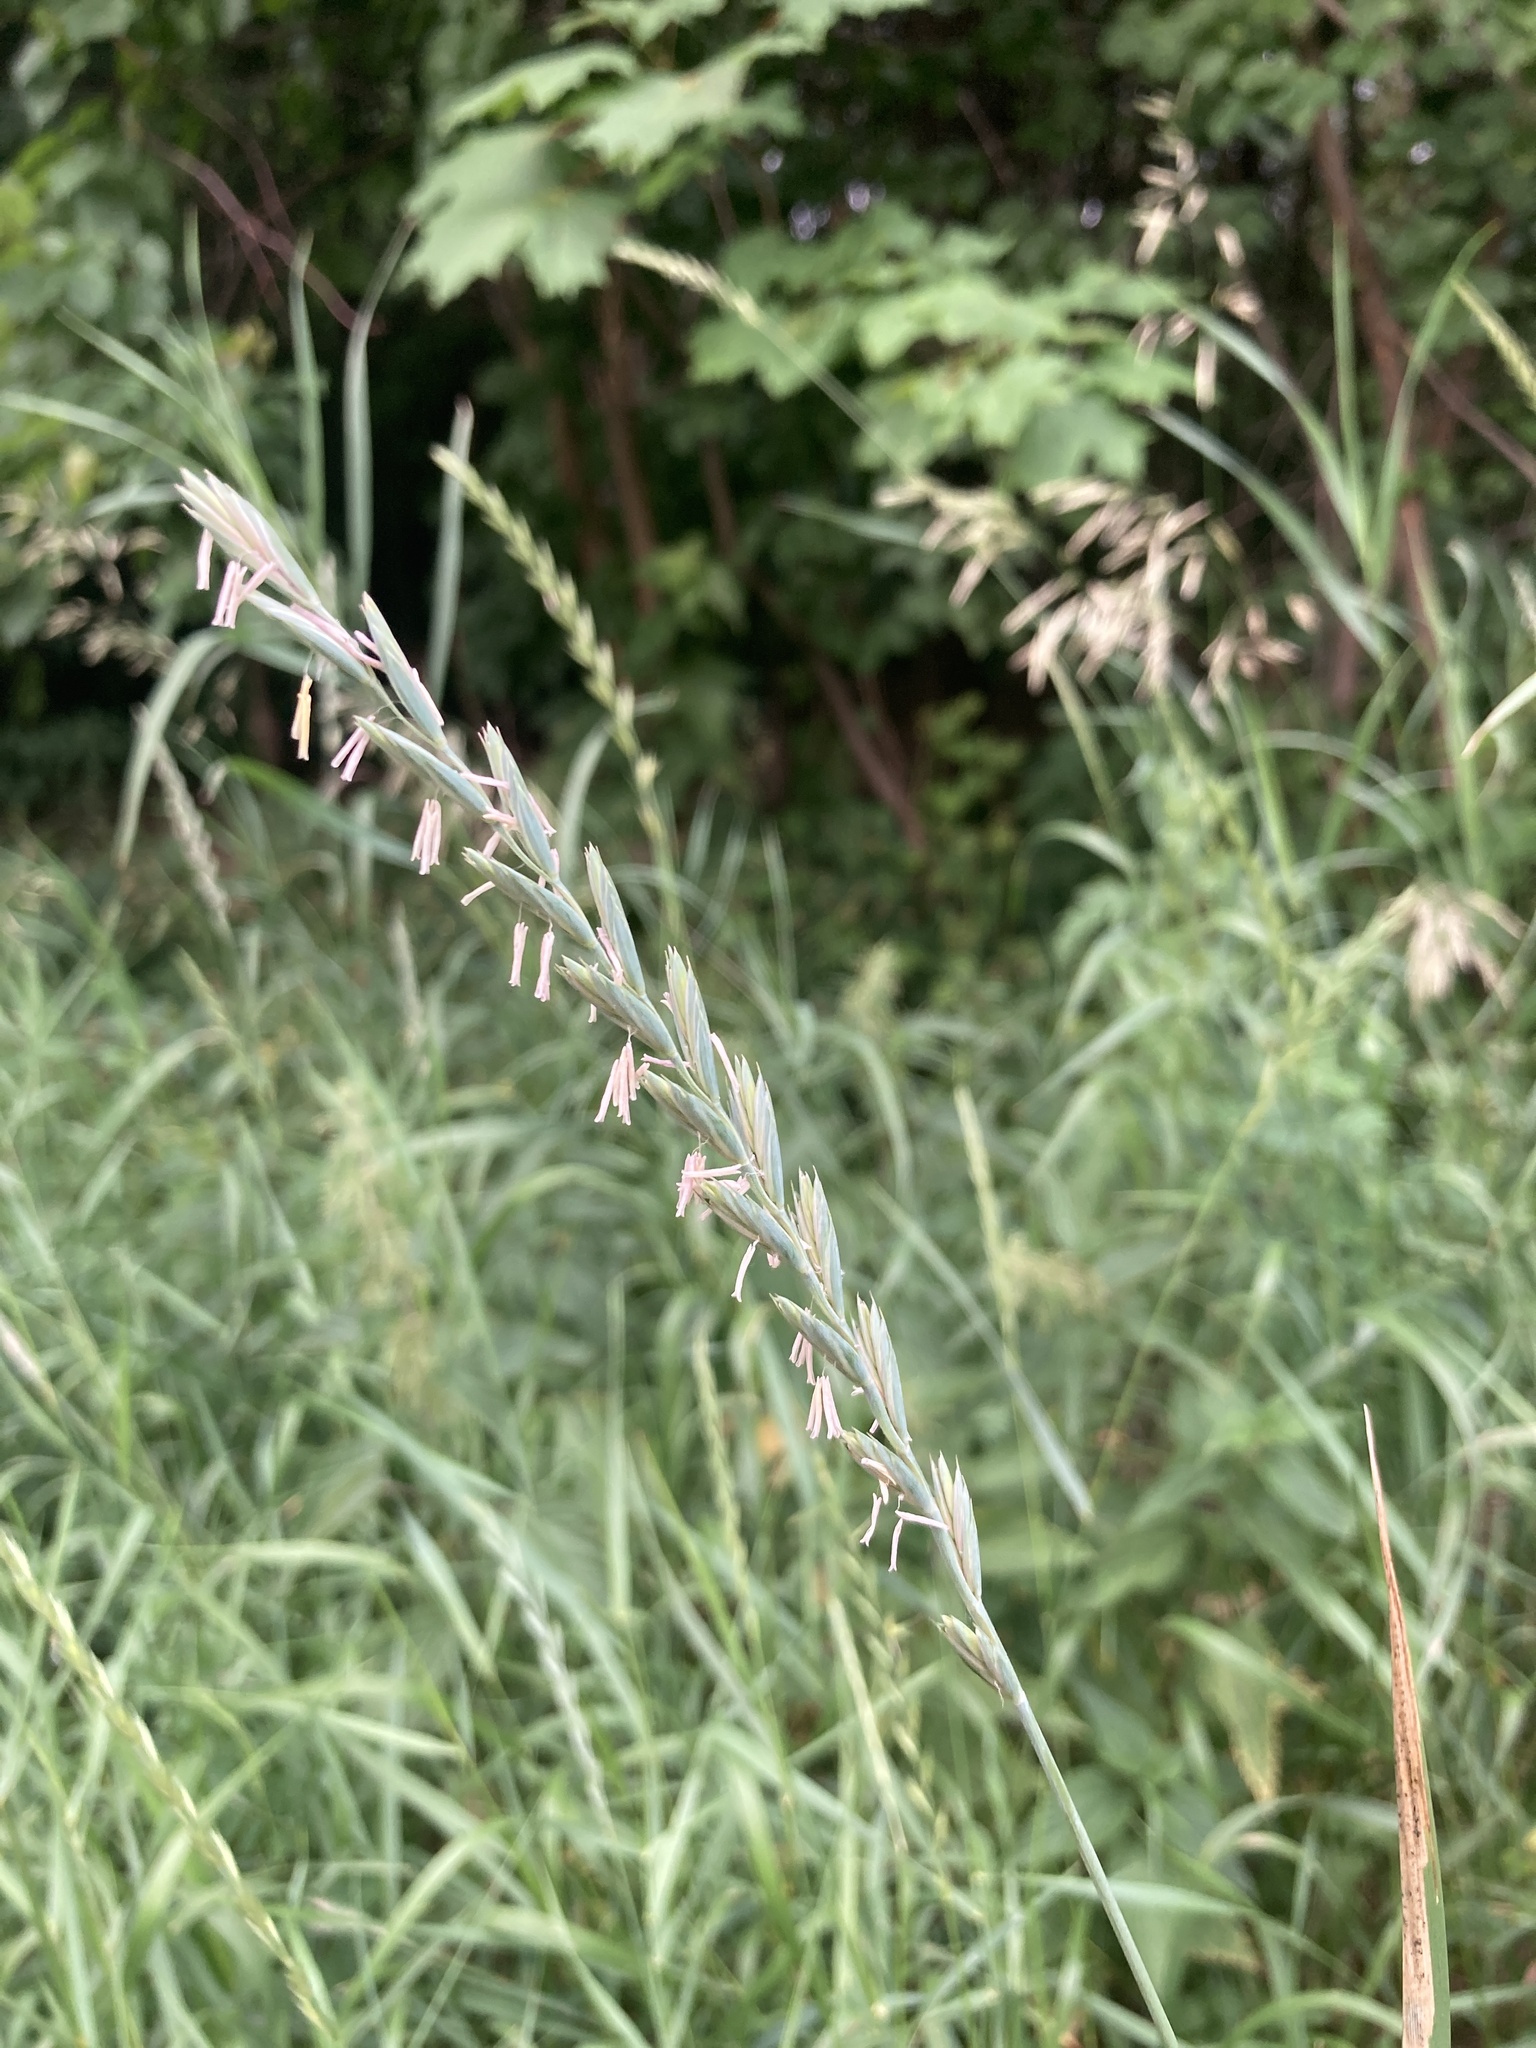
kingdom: Plantae
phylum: Tracheophyta
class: Liliopsida
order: Poales
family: Poaceae
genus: Elymus
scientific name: Elymus repens
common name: Quackgrass
